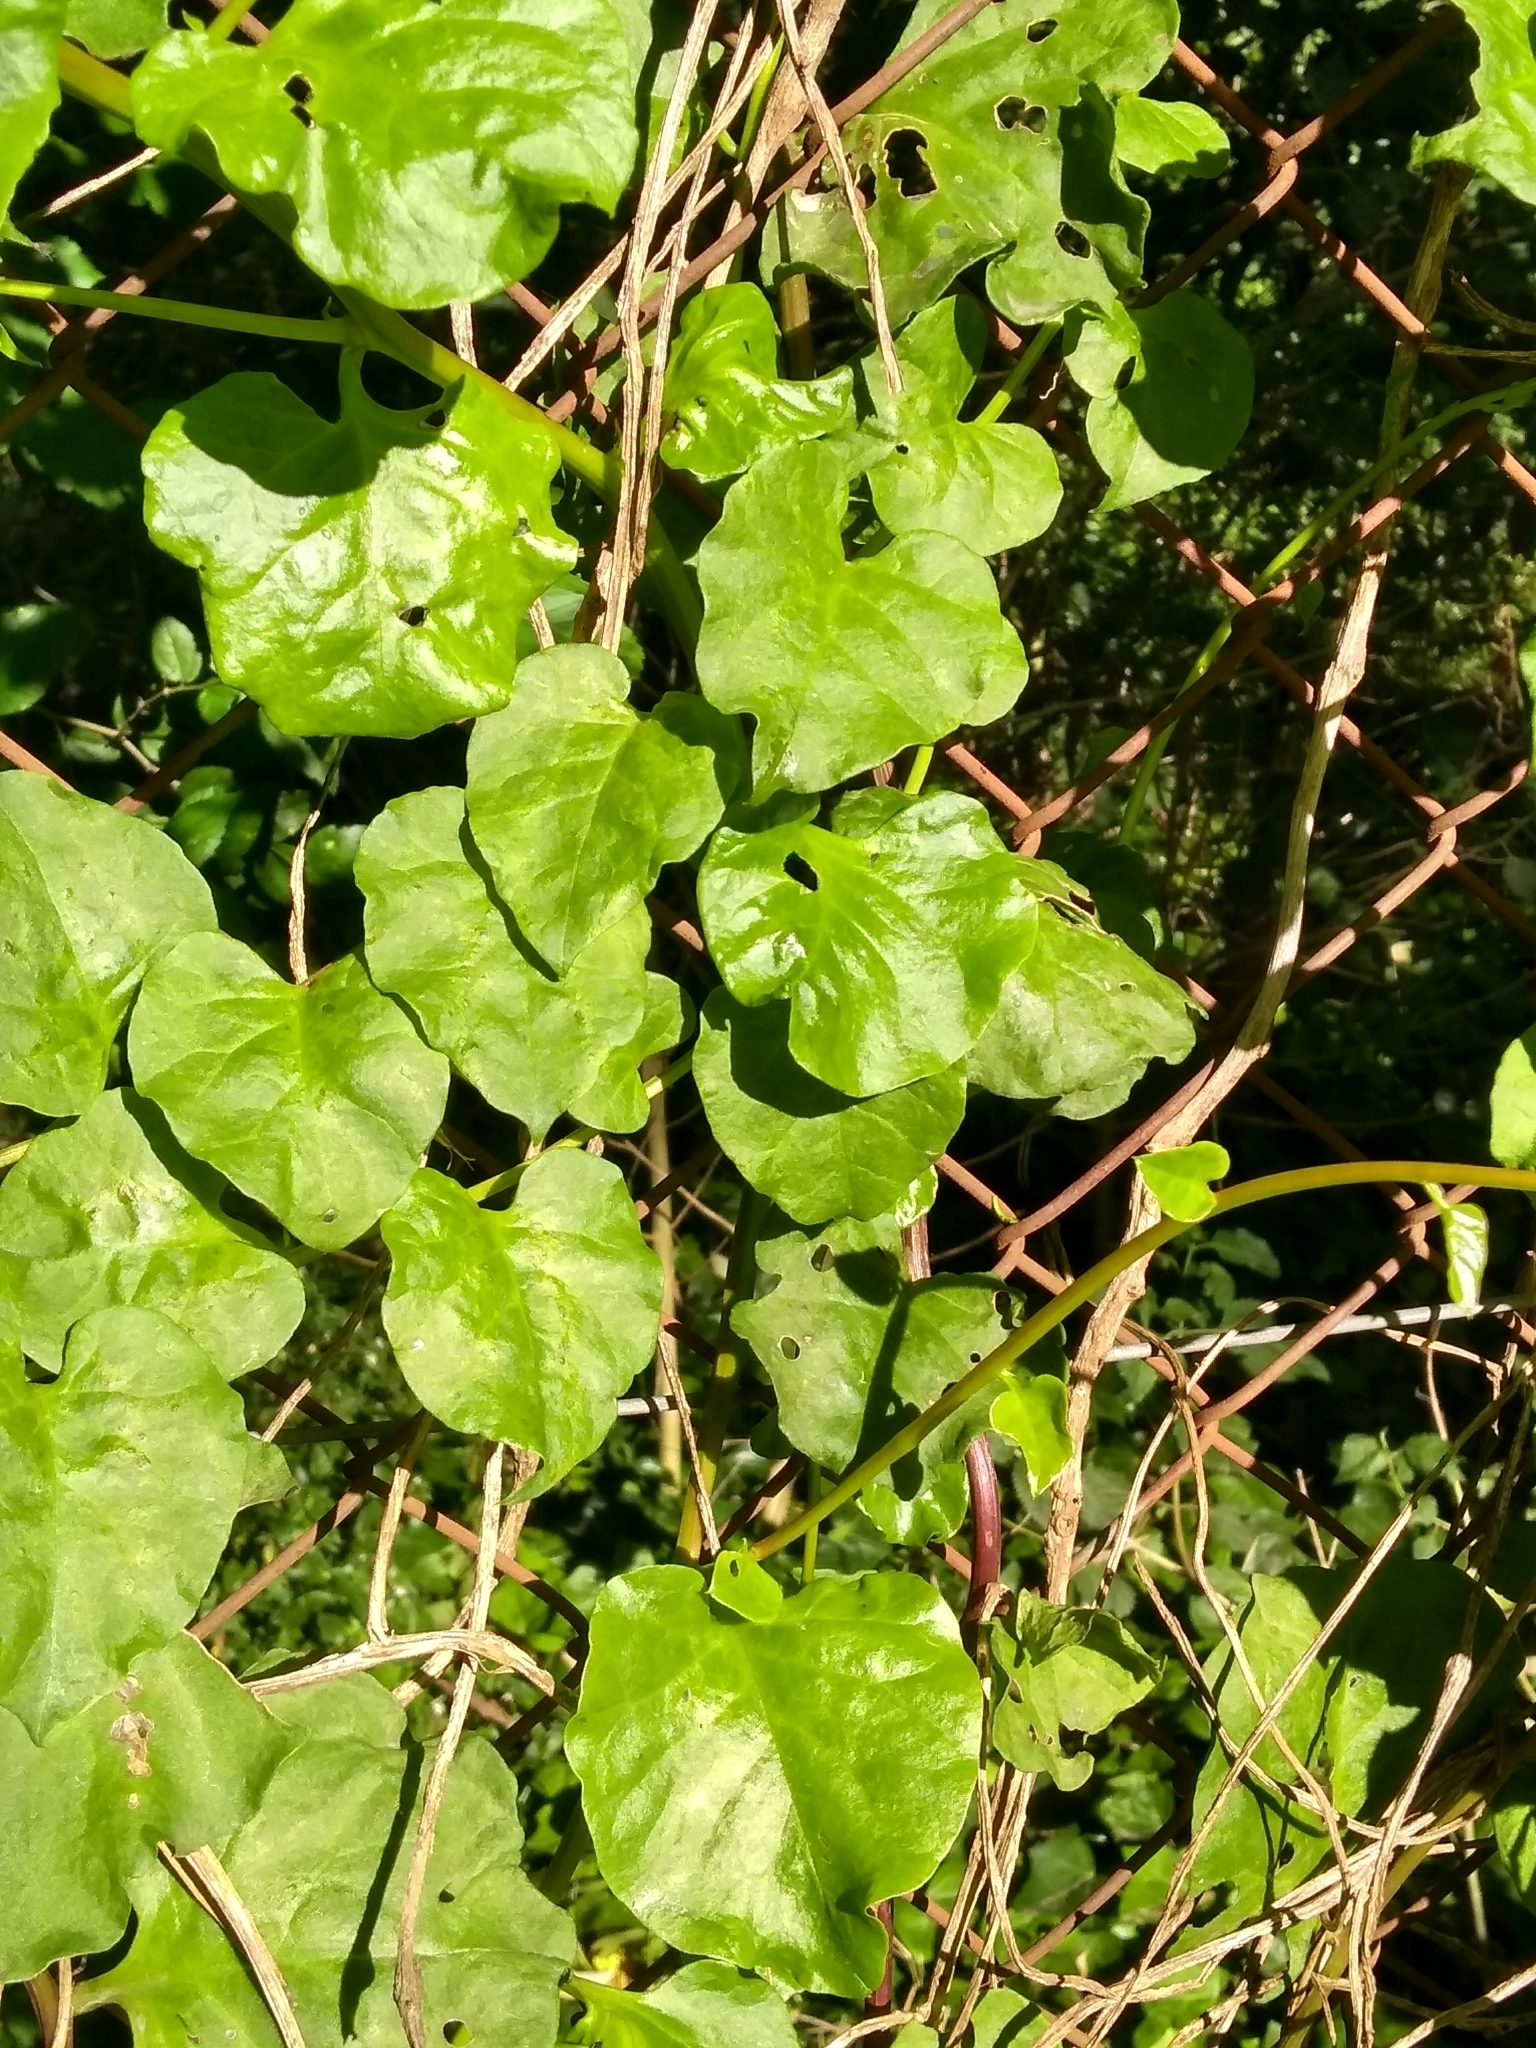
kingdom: Plantae
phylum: Tracheophyta
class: Magnoliopsida
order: Caryophyllales
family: Basellaceae
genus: Anredera
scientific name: Anredera cordifolia
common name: Heartleaf madeiravine
